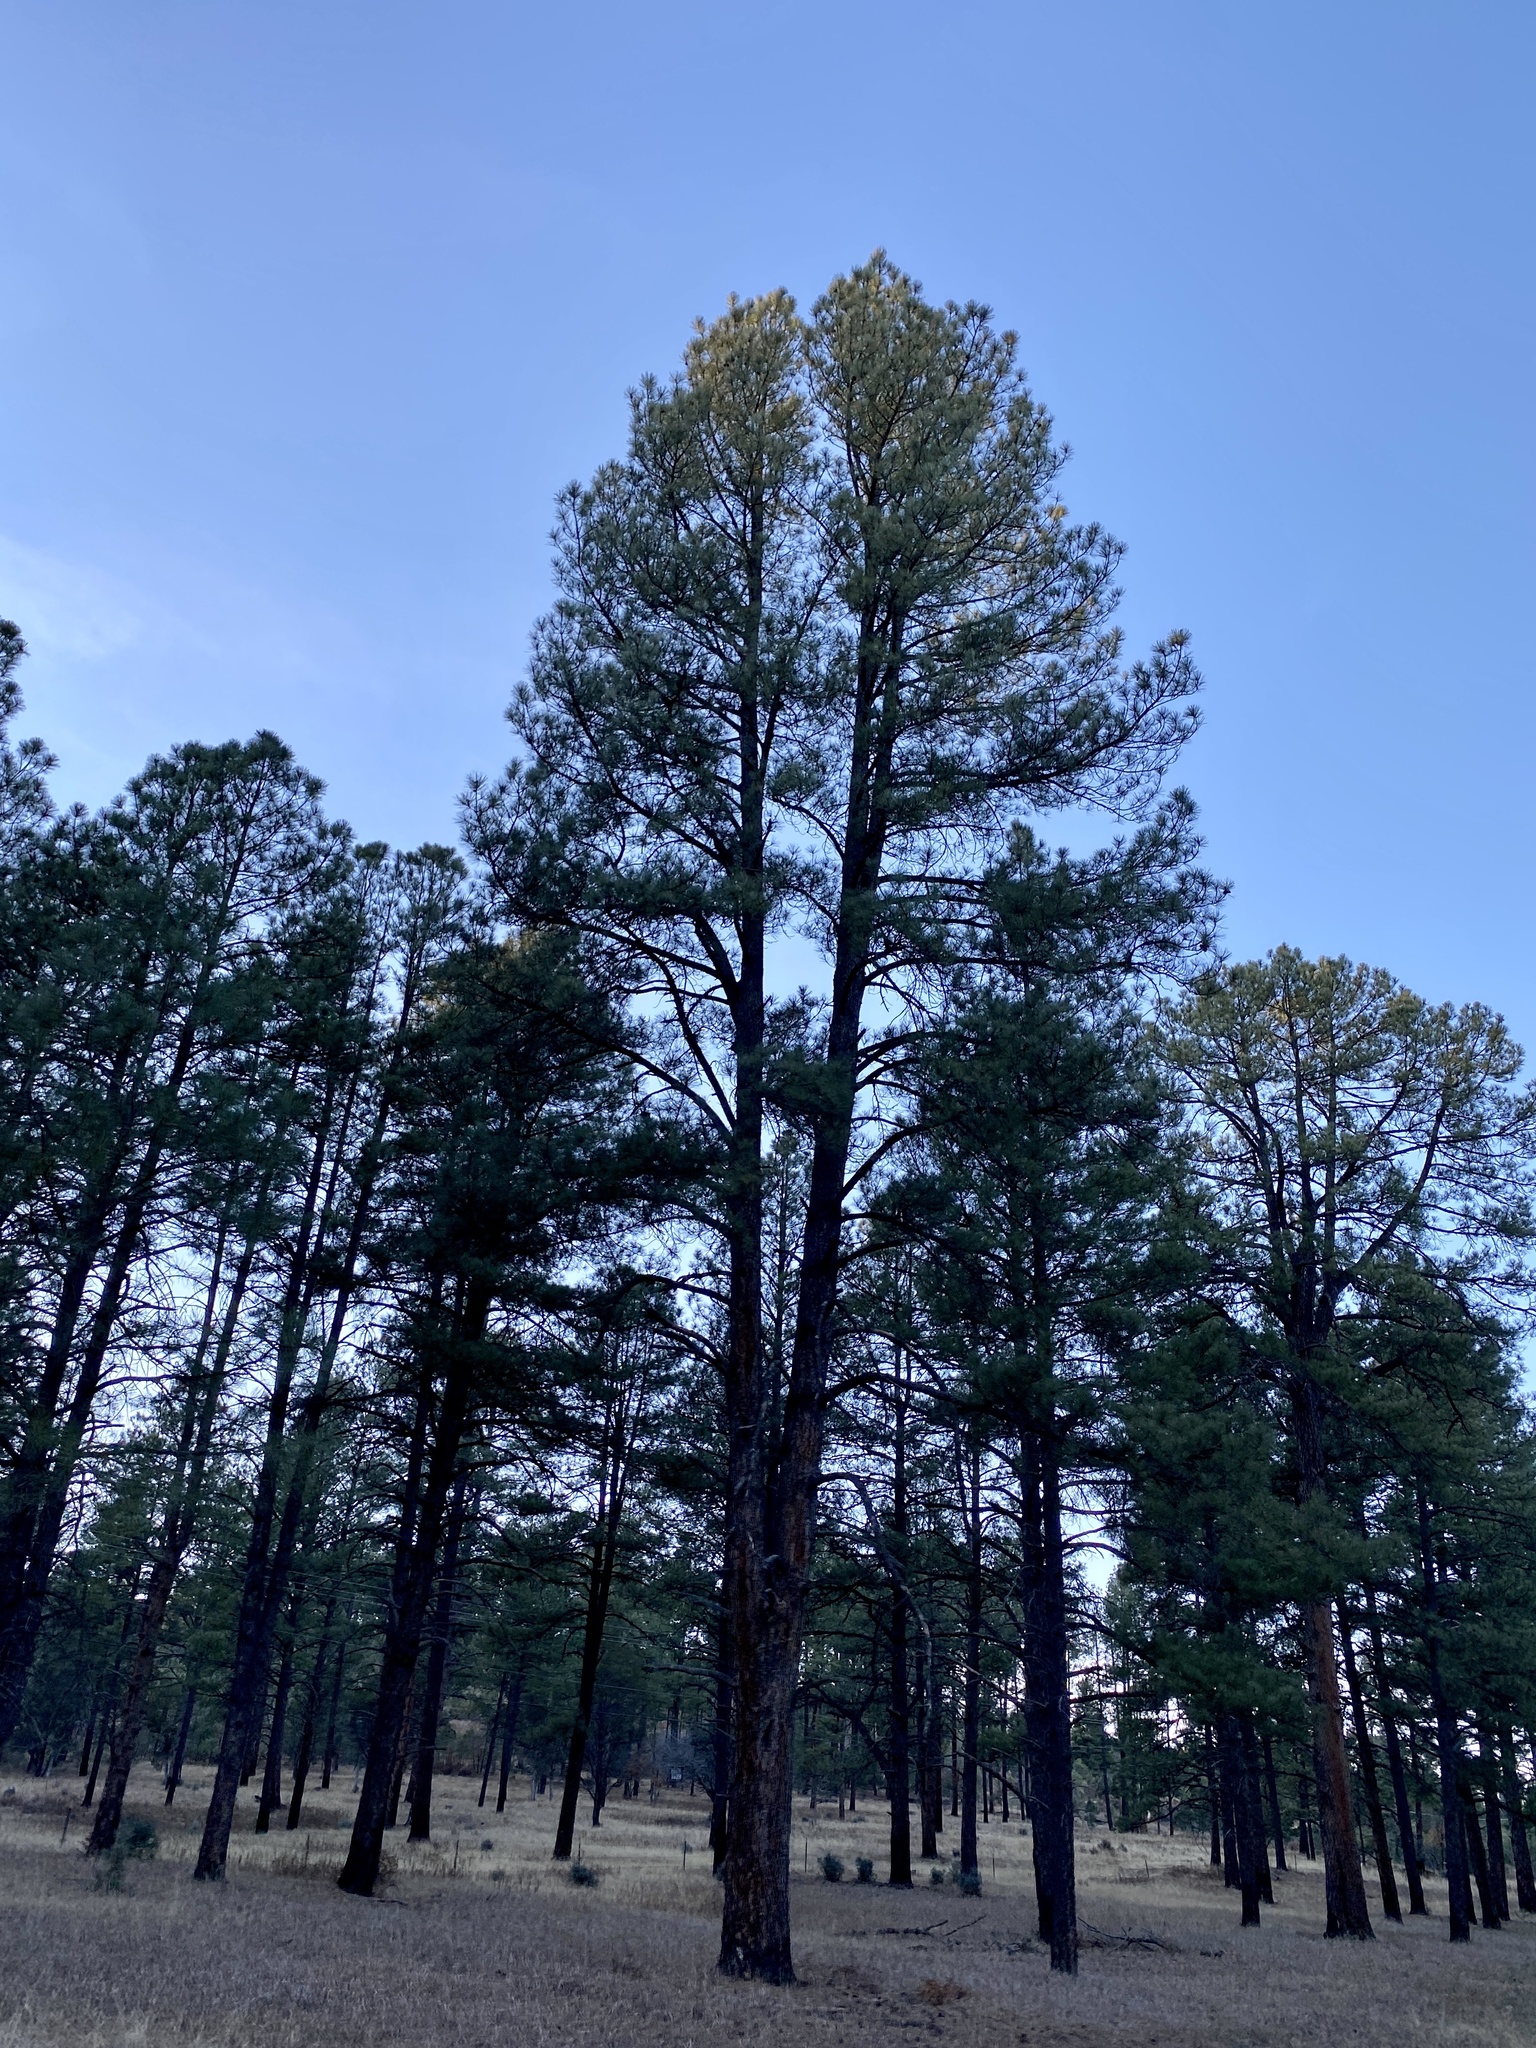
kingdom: Plantae
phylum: Tracheophyta
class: Pinopsida
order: Pinales
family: Pinaceae
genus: Pinus
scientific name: Pinus ponderosa
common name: Western yellow-pine
